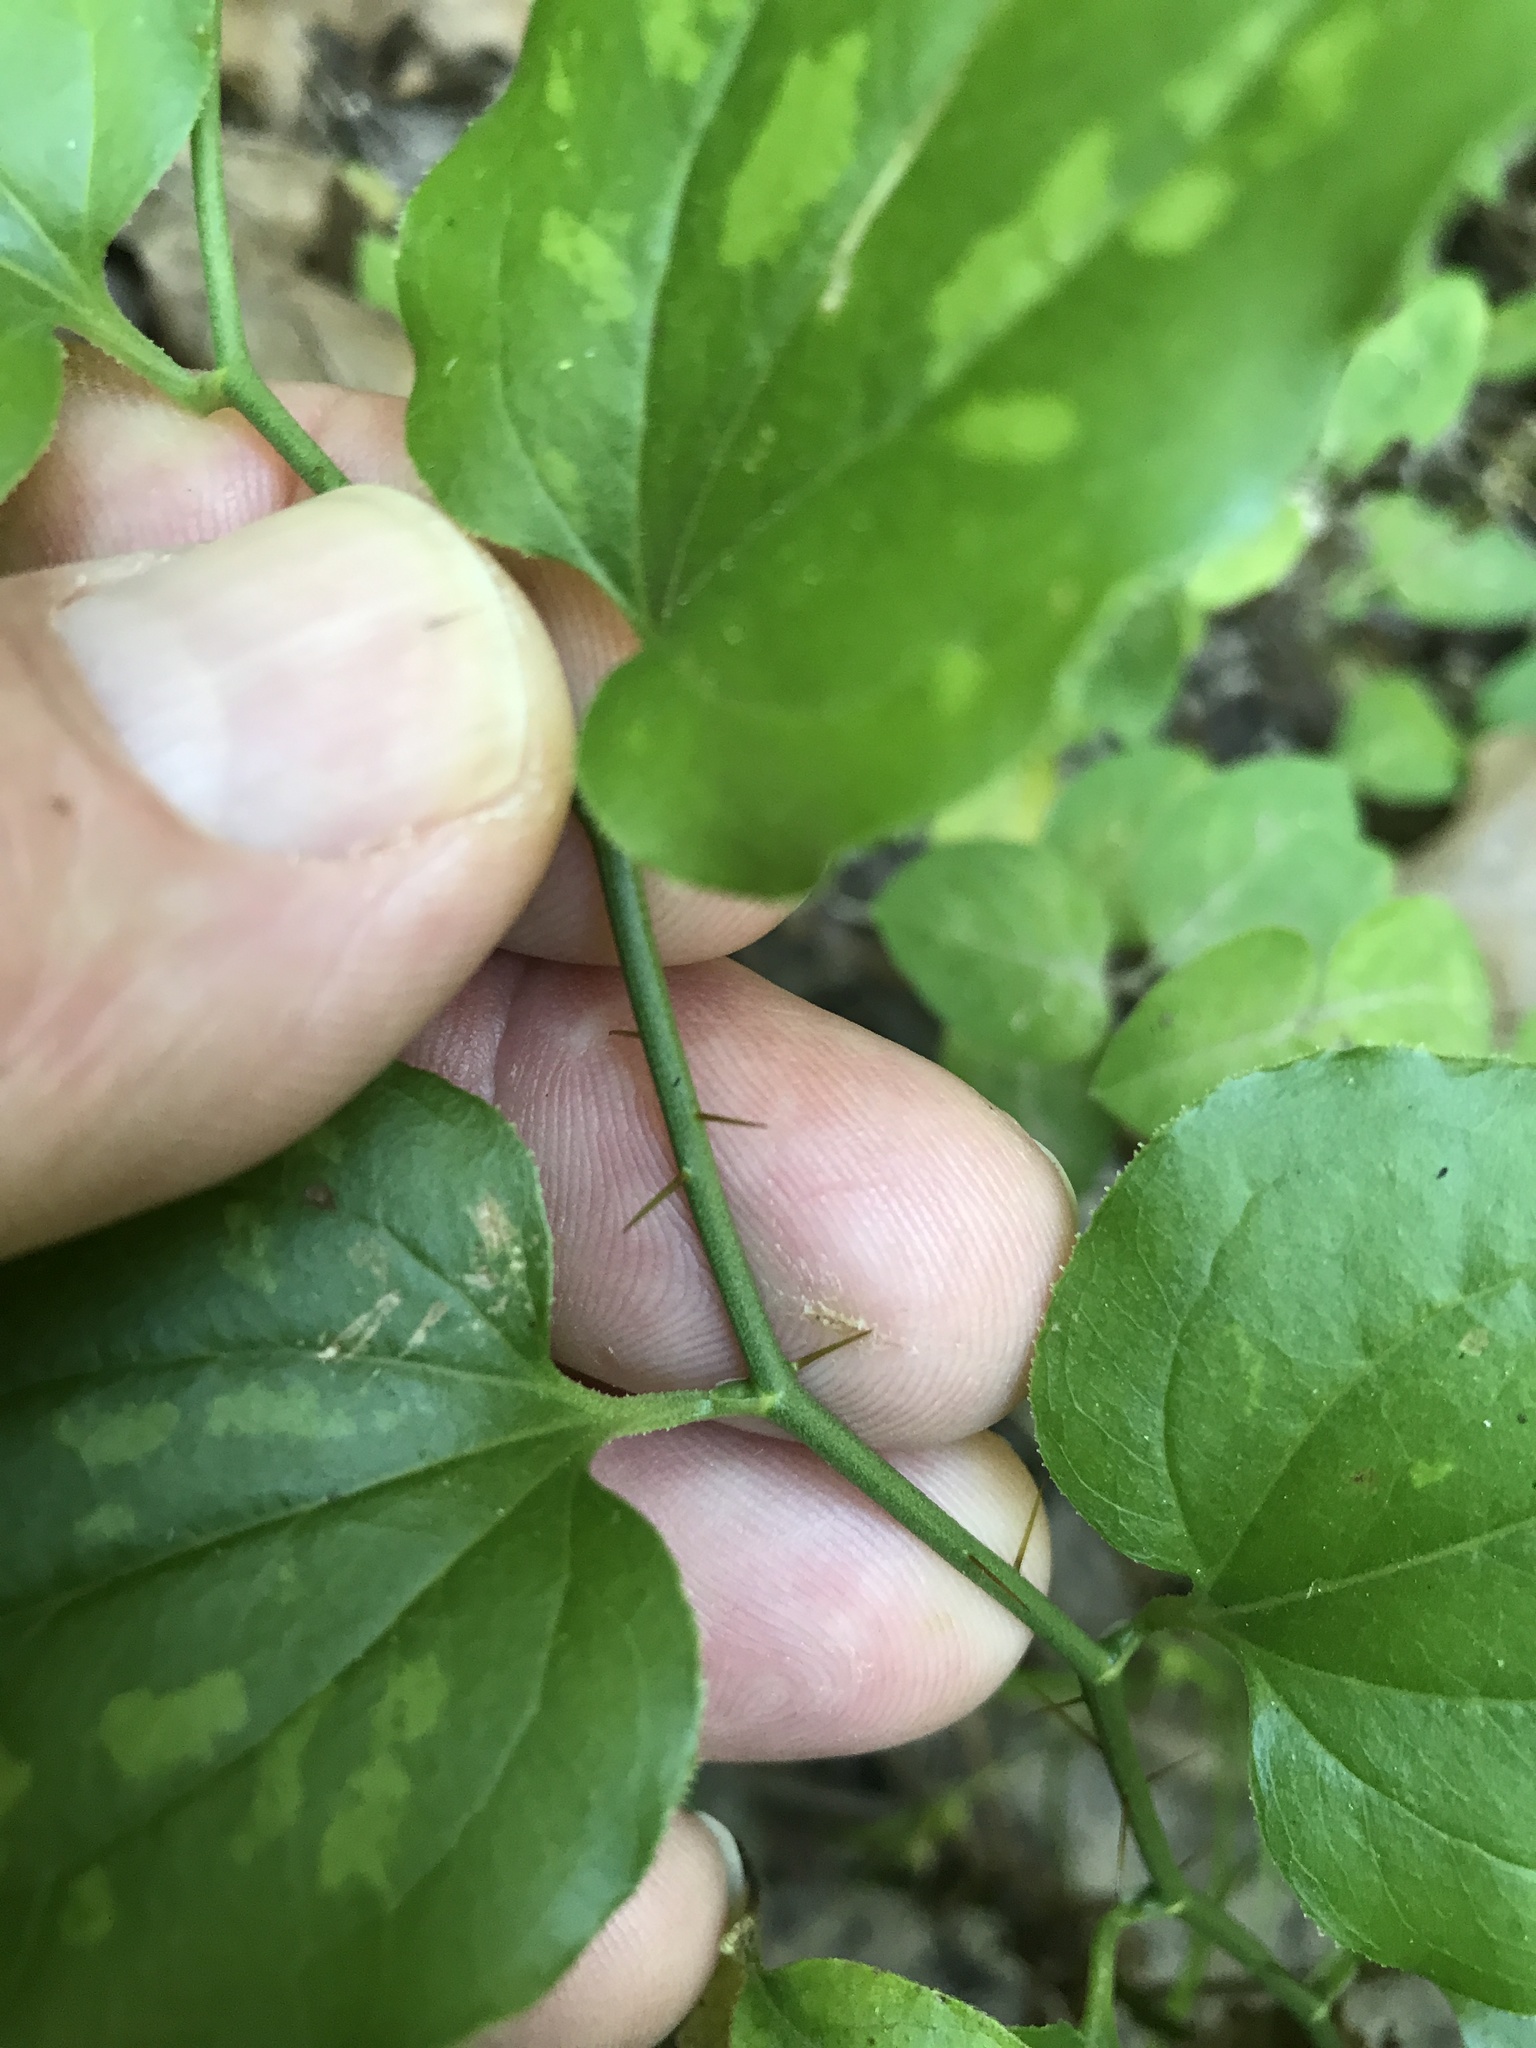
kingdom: Plantae
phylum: Tracheophyta
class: Liliopsida
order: Liliales
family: Smilacaceae
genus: Smilax
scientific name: Smilax tamnoides
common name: Hellfetter
